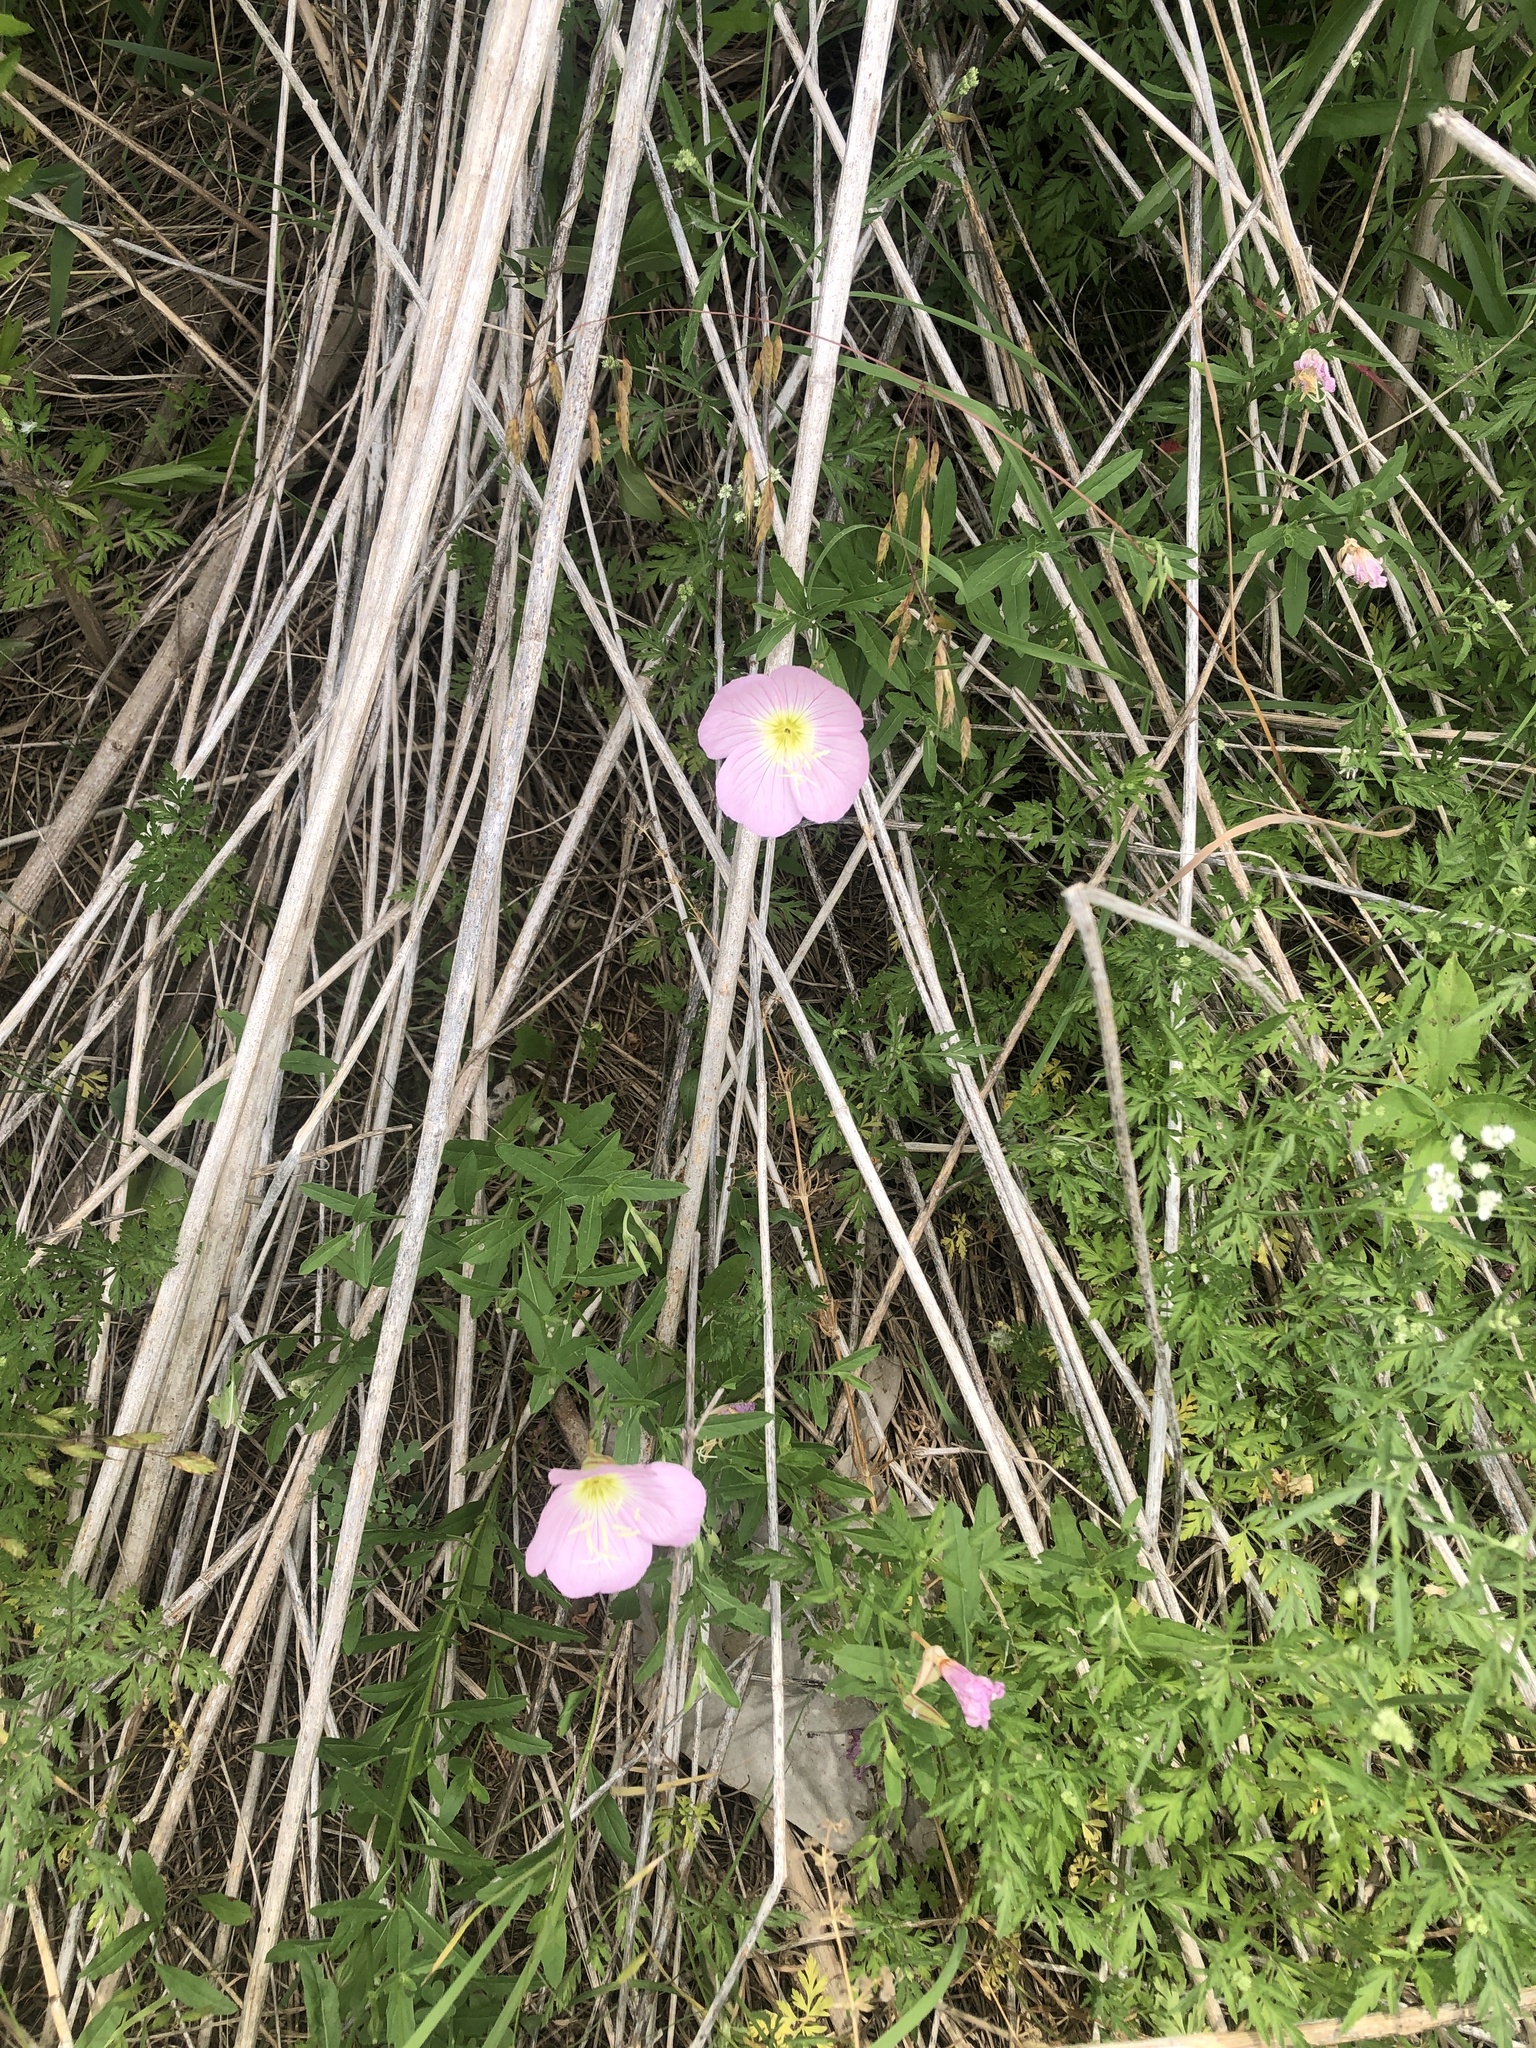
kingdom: Plantae
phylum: Tracheophyta
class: Magnoliopsida
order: Myrtales
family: Onagraceae
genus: Oenothera
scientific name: Oenothera speciosa
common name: White evening-primrose
